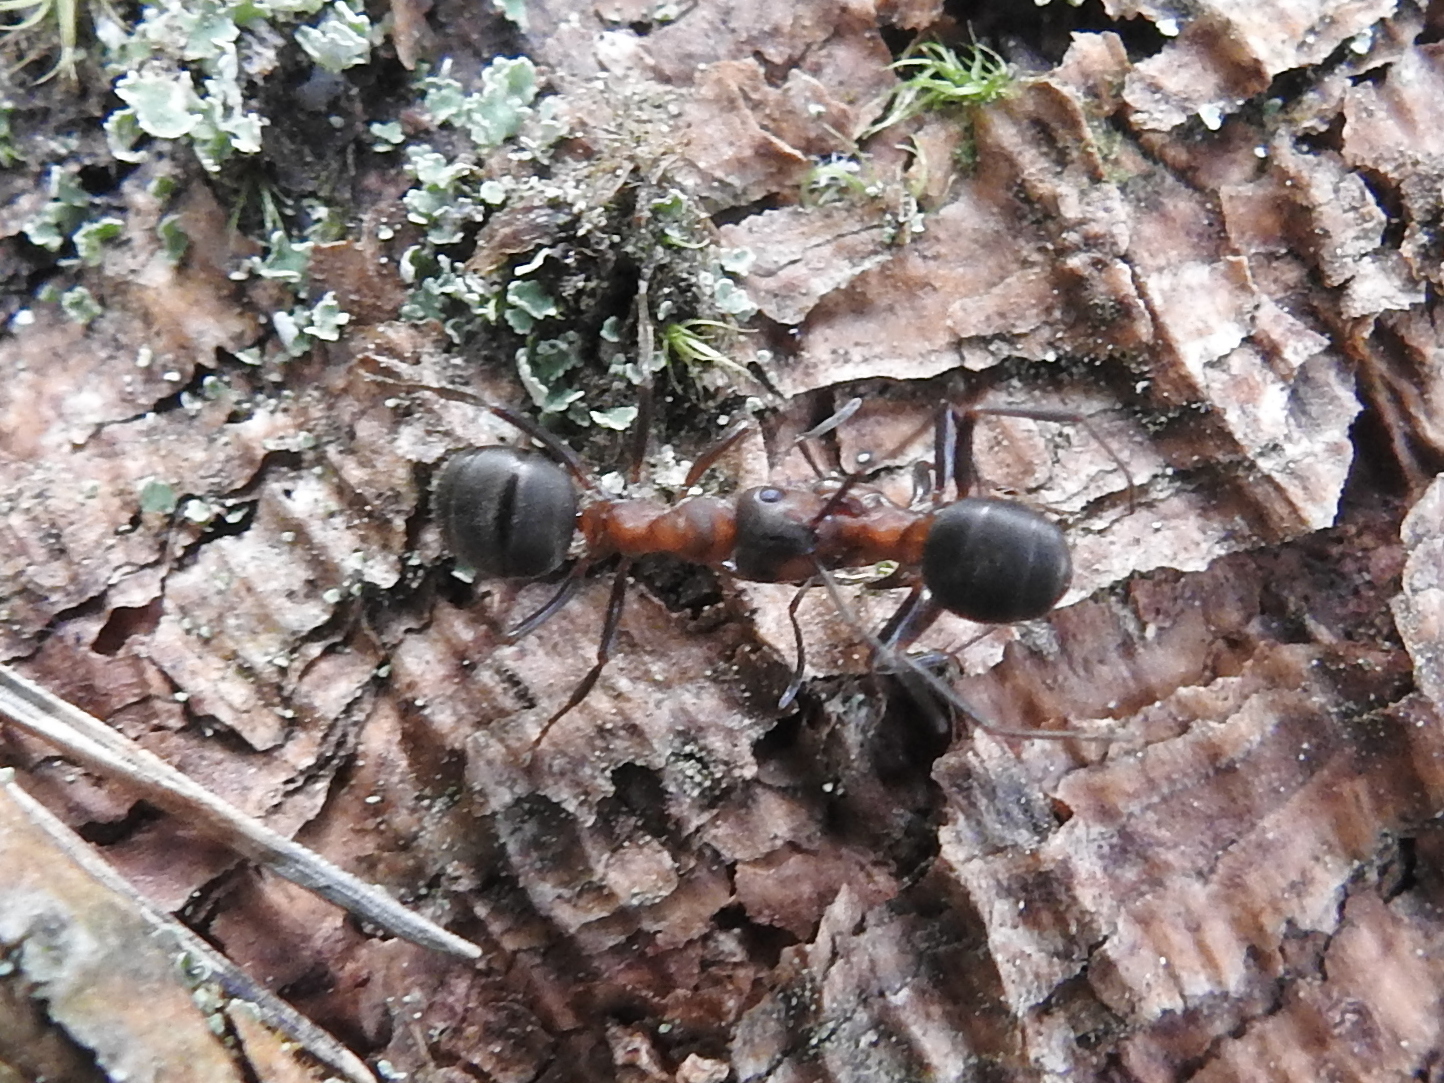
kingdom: Animalia
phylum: Arthropoda
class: Insecta
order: Hymenoptera
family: Formicidae
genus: Formica
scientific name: Formica rufa
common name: Red wood ant
